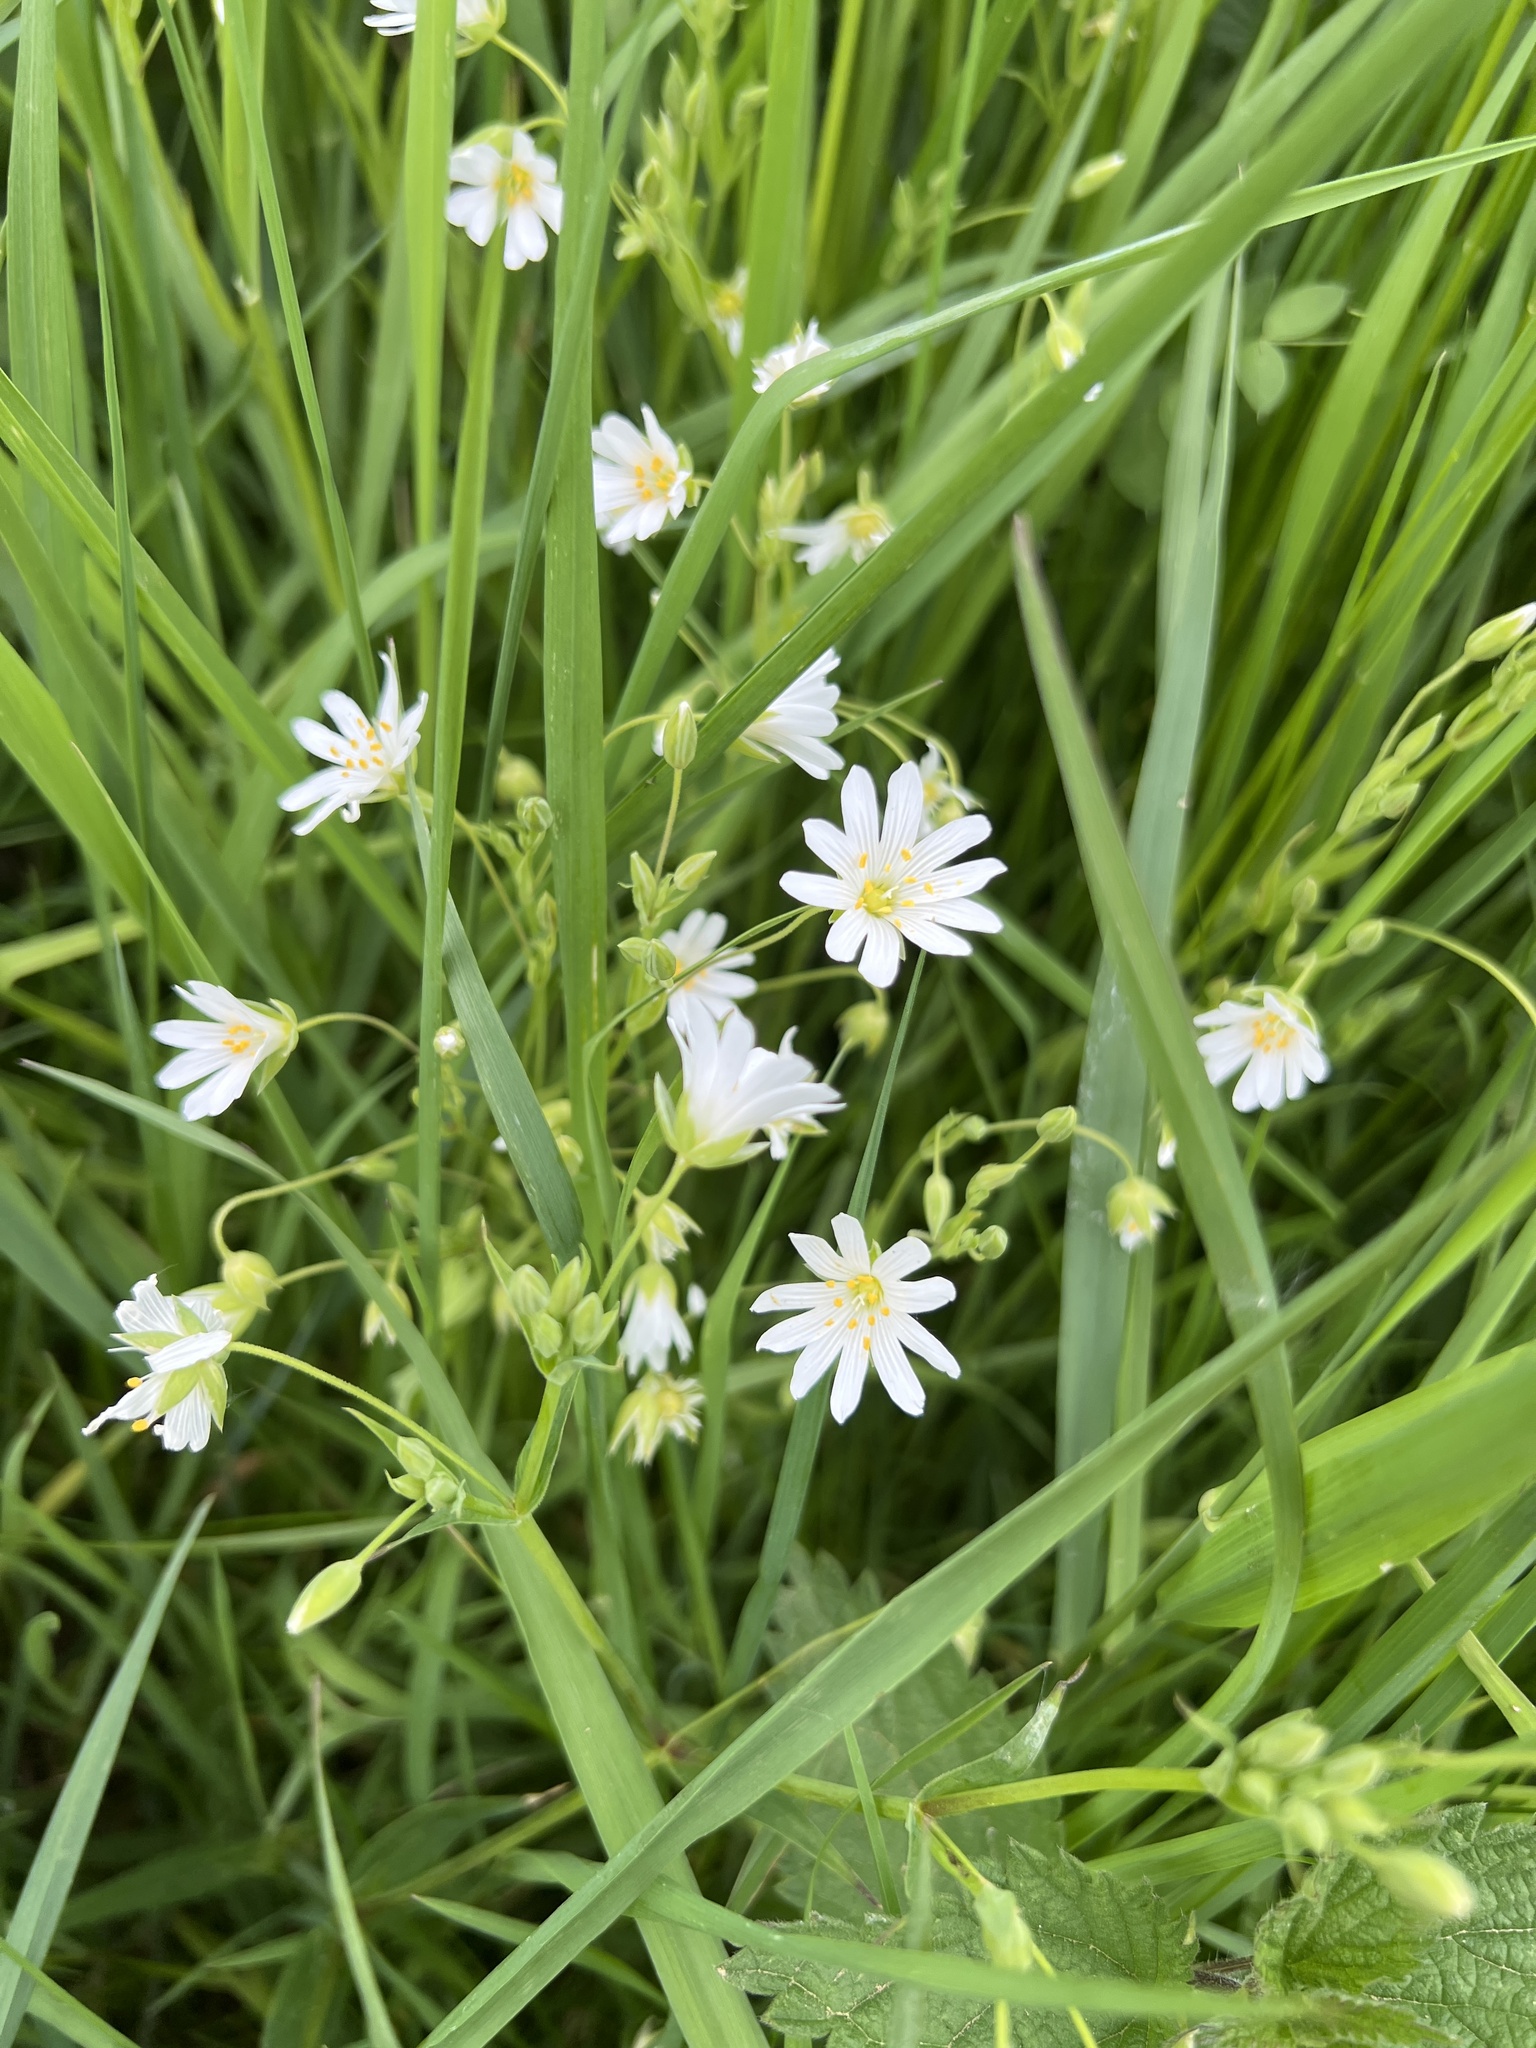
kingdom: Plantae
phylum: Tracheophyta
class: Magnoliopsida
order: Caryophyllales
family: Caryophyllaceae
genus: Rabelera
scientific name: Rabelera holostea
